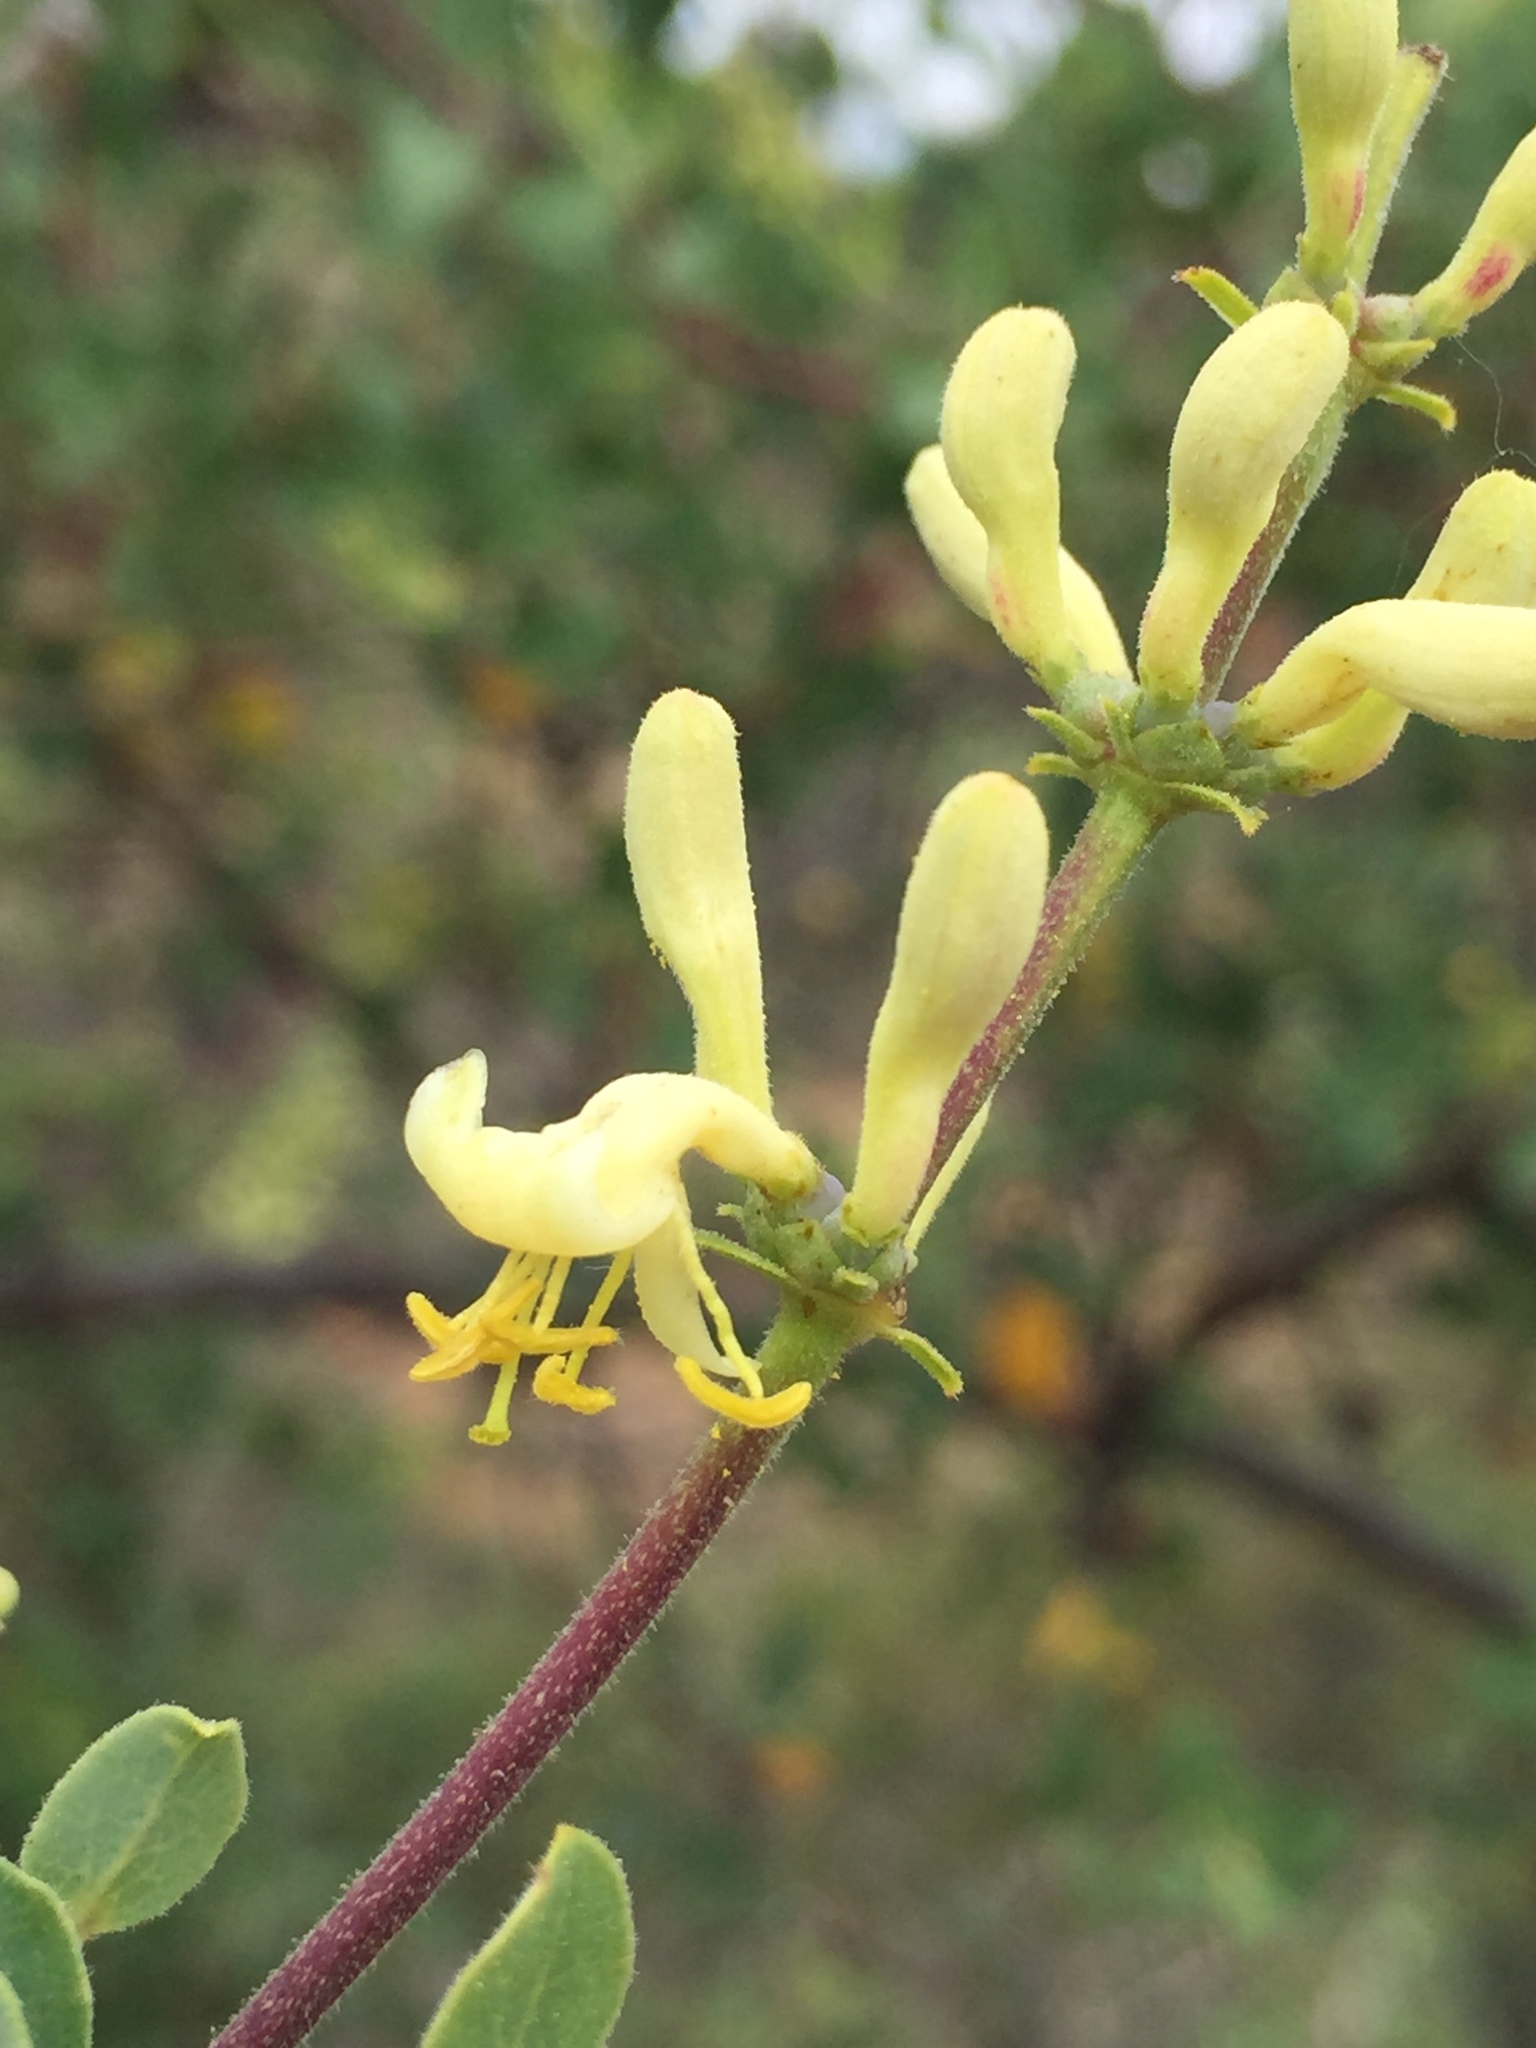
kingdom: Plantae
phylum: Tracheophyta
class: Magnoliopsida
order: Dipsacales
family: Caprifoliaceae
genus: Lonicera
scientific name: Lonicera subspicata
